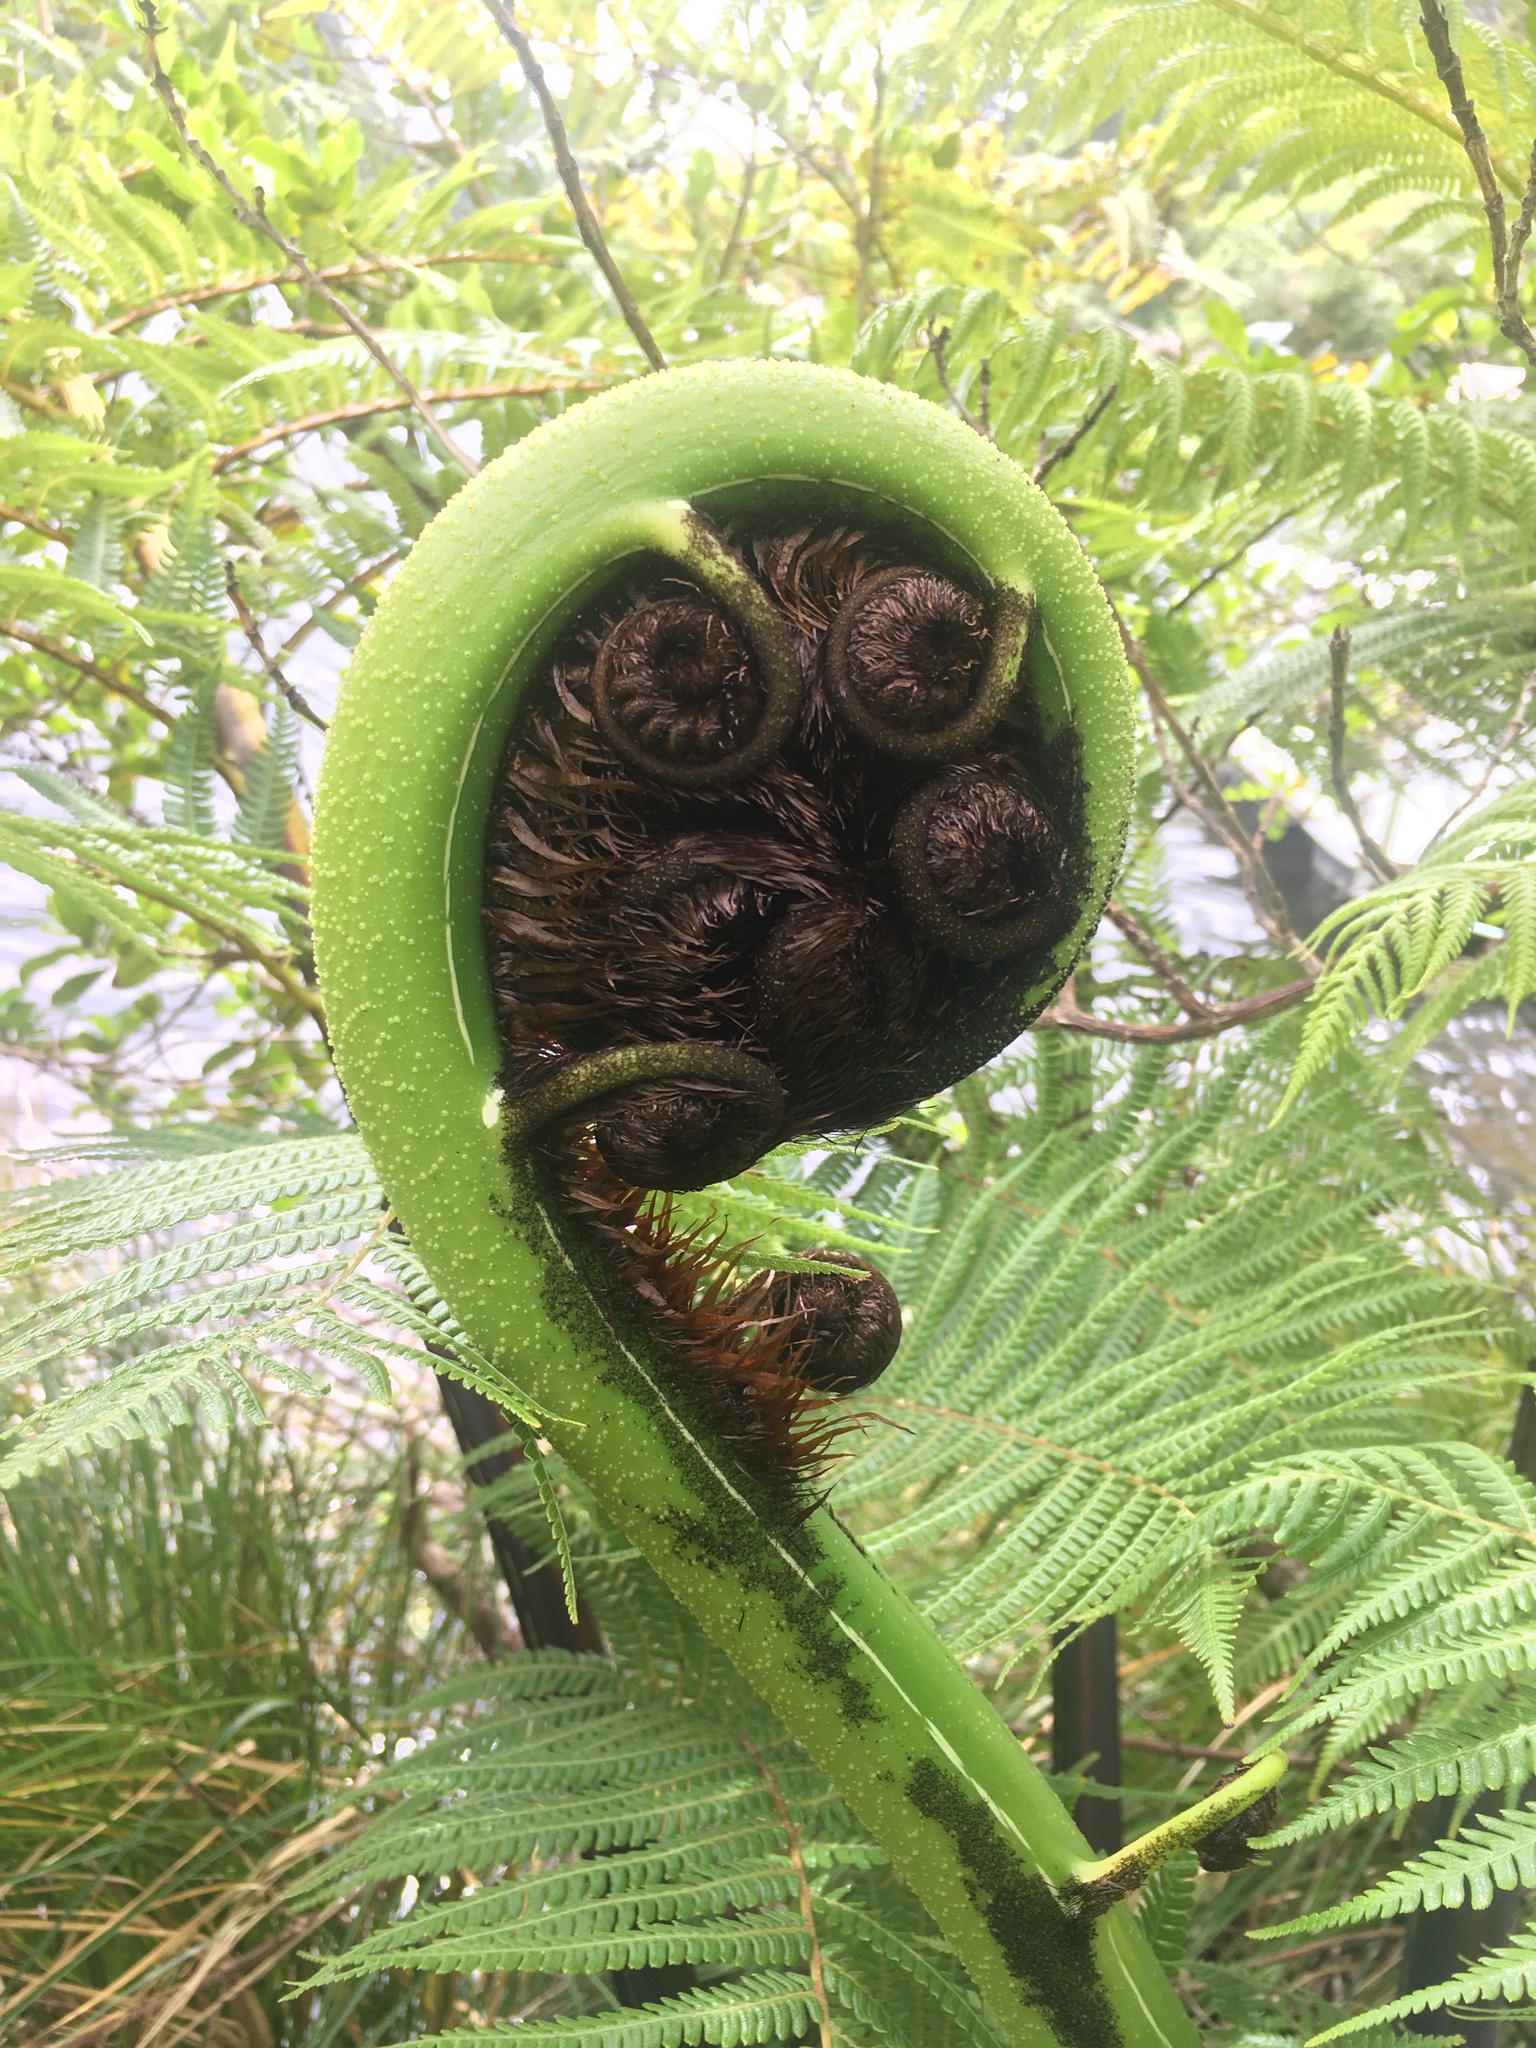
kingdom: Plantae
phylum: Tracheophyta
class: Polypodiopsida
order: Cyatheales
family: Cyatheaceae
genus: Sphaeropteris
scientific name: Sphaeropteris medullaris
